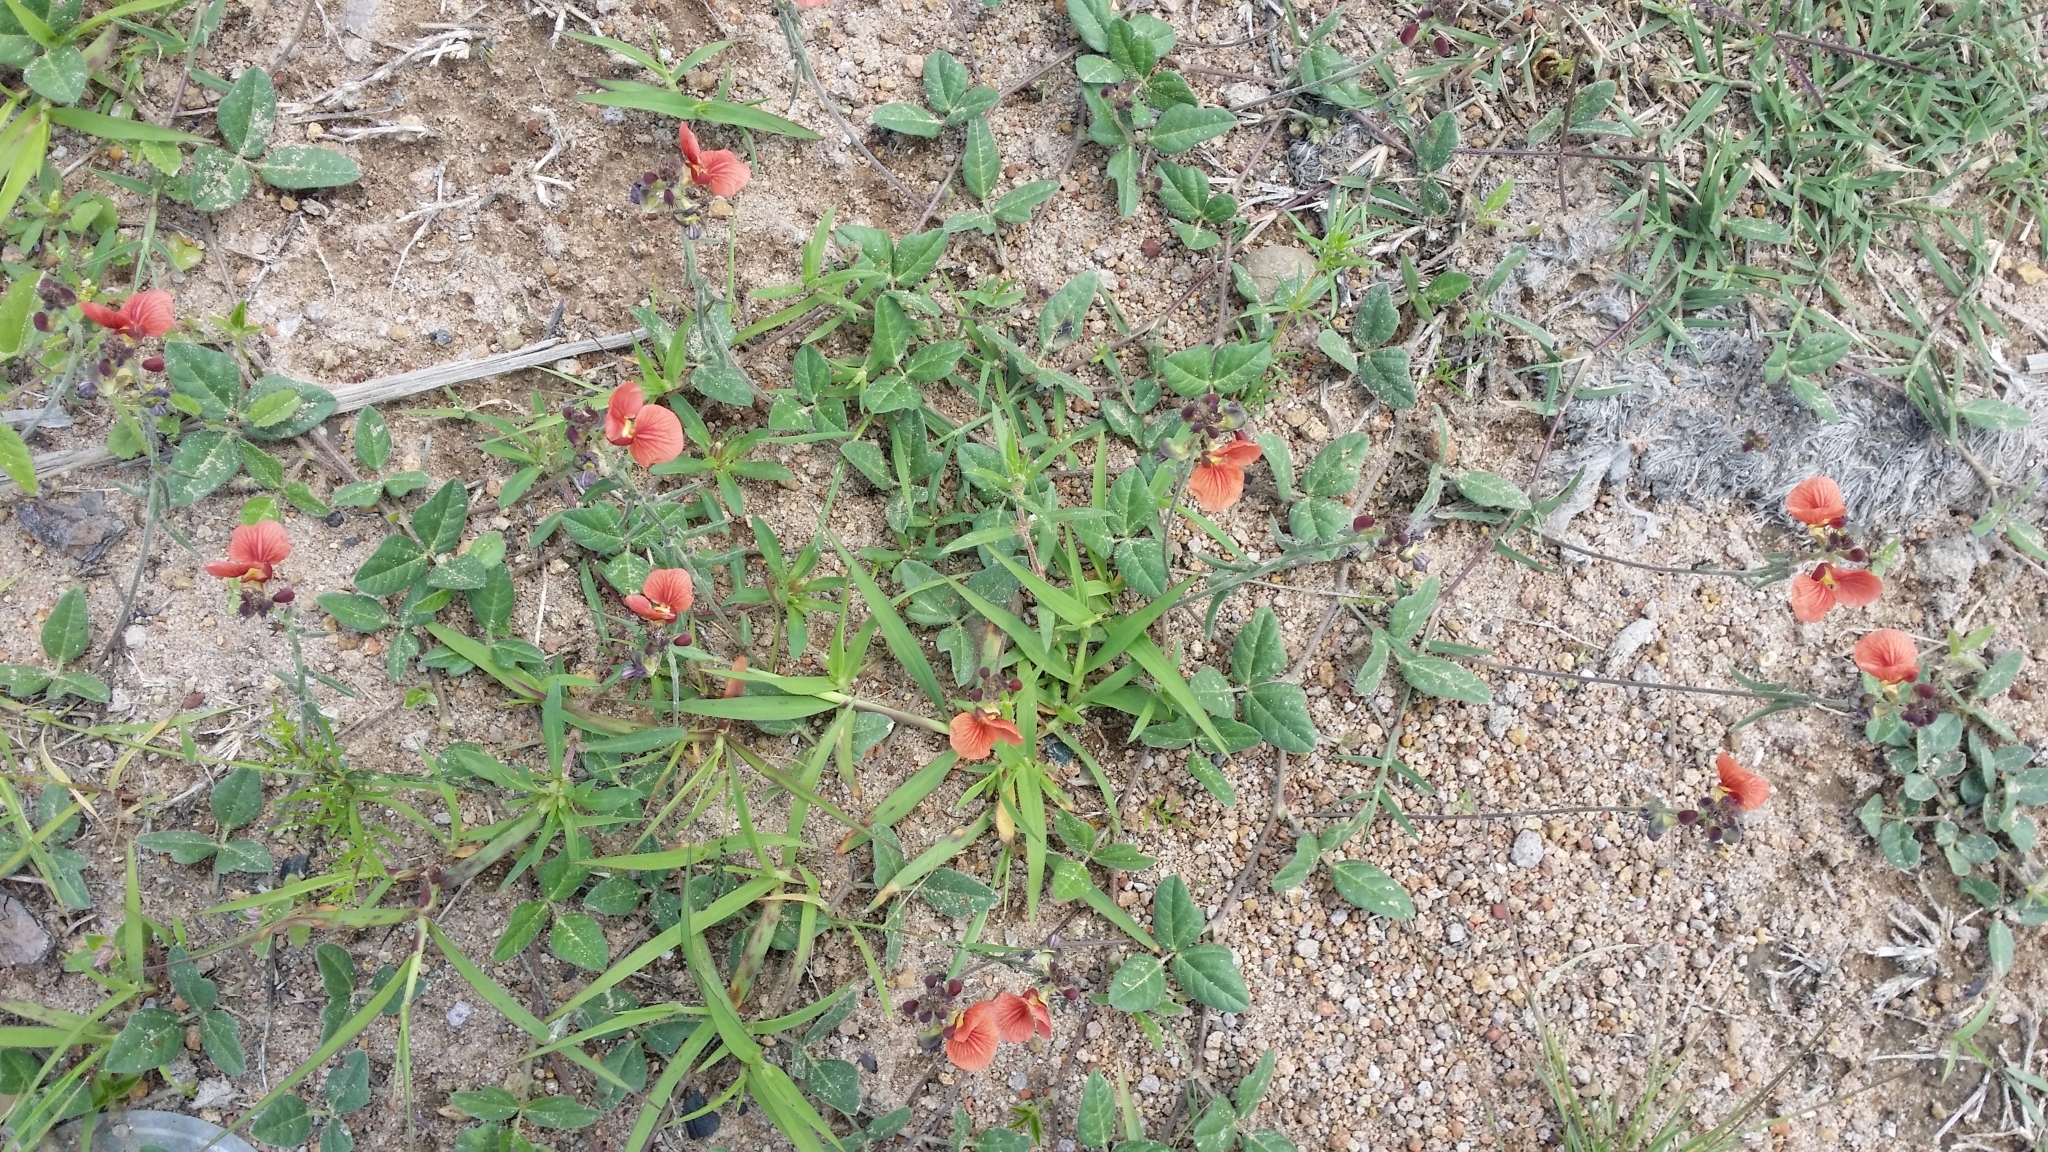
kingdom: Plantae
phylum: Tracheophyta
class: Magnoliopsida
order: Fabales
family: Fabaceae
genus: Macroptilium
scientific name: Macroptilium gibbosifolium
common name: Variableleaf bushbean
